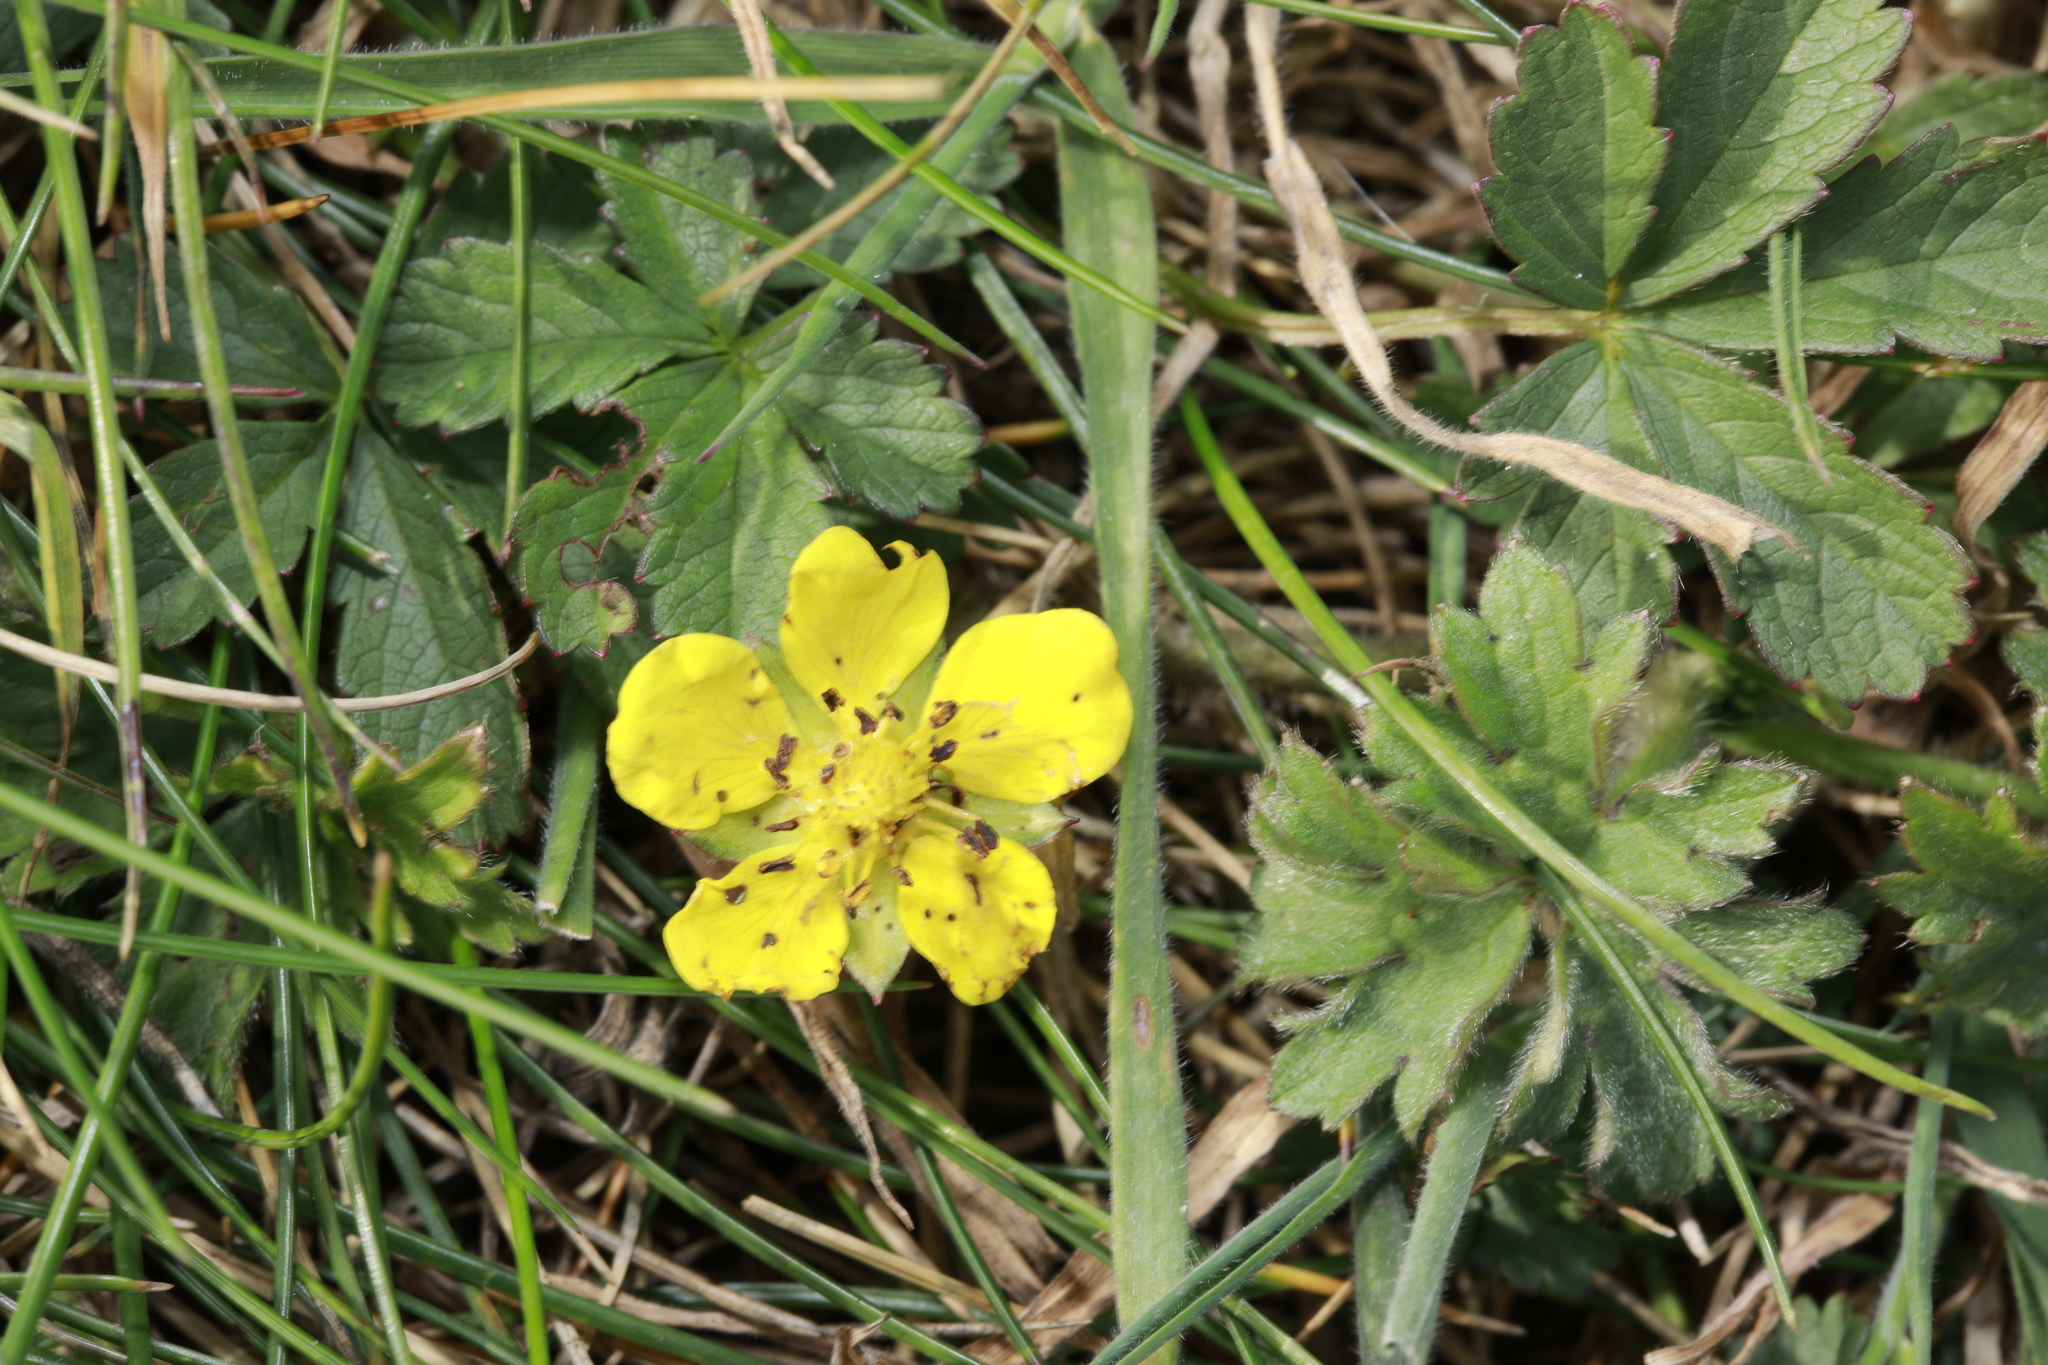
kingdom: Plantae
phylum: Tracheophyta
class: Magnoliopsida
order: Rosales
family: Rosaceae
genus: Potentilla
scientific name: Potentilla reptans
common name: Creeping cinquefoil
